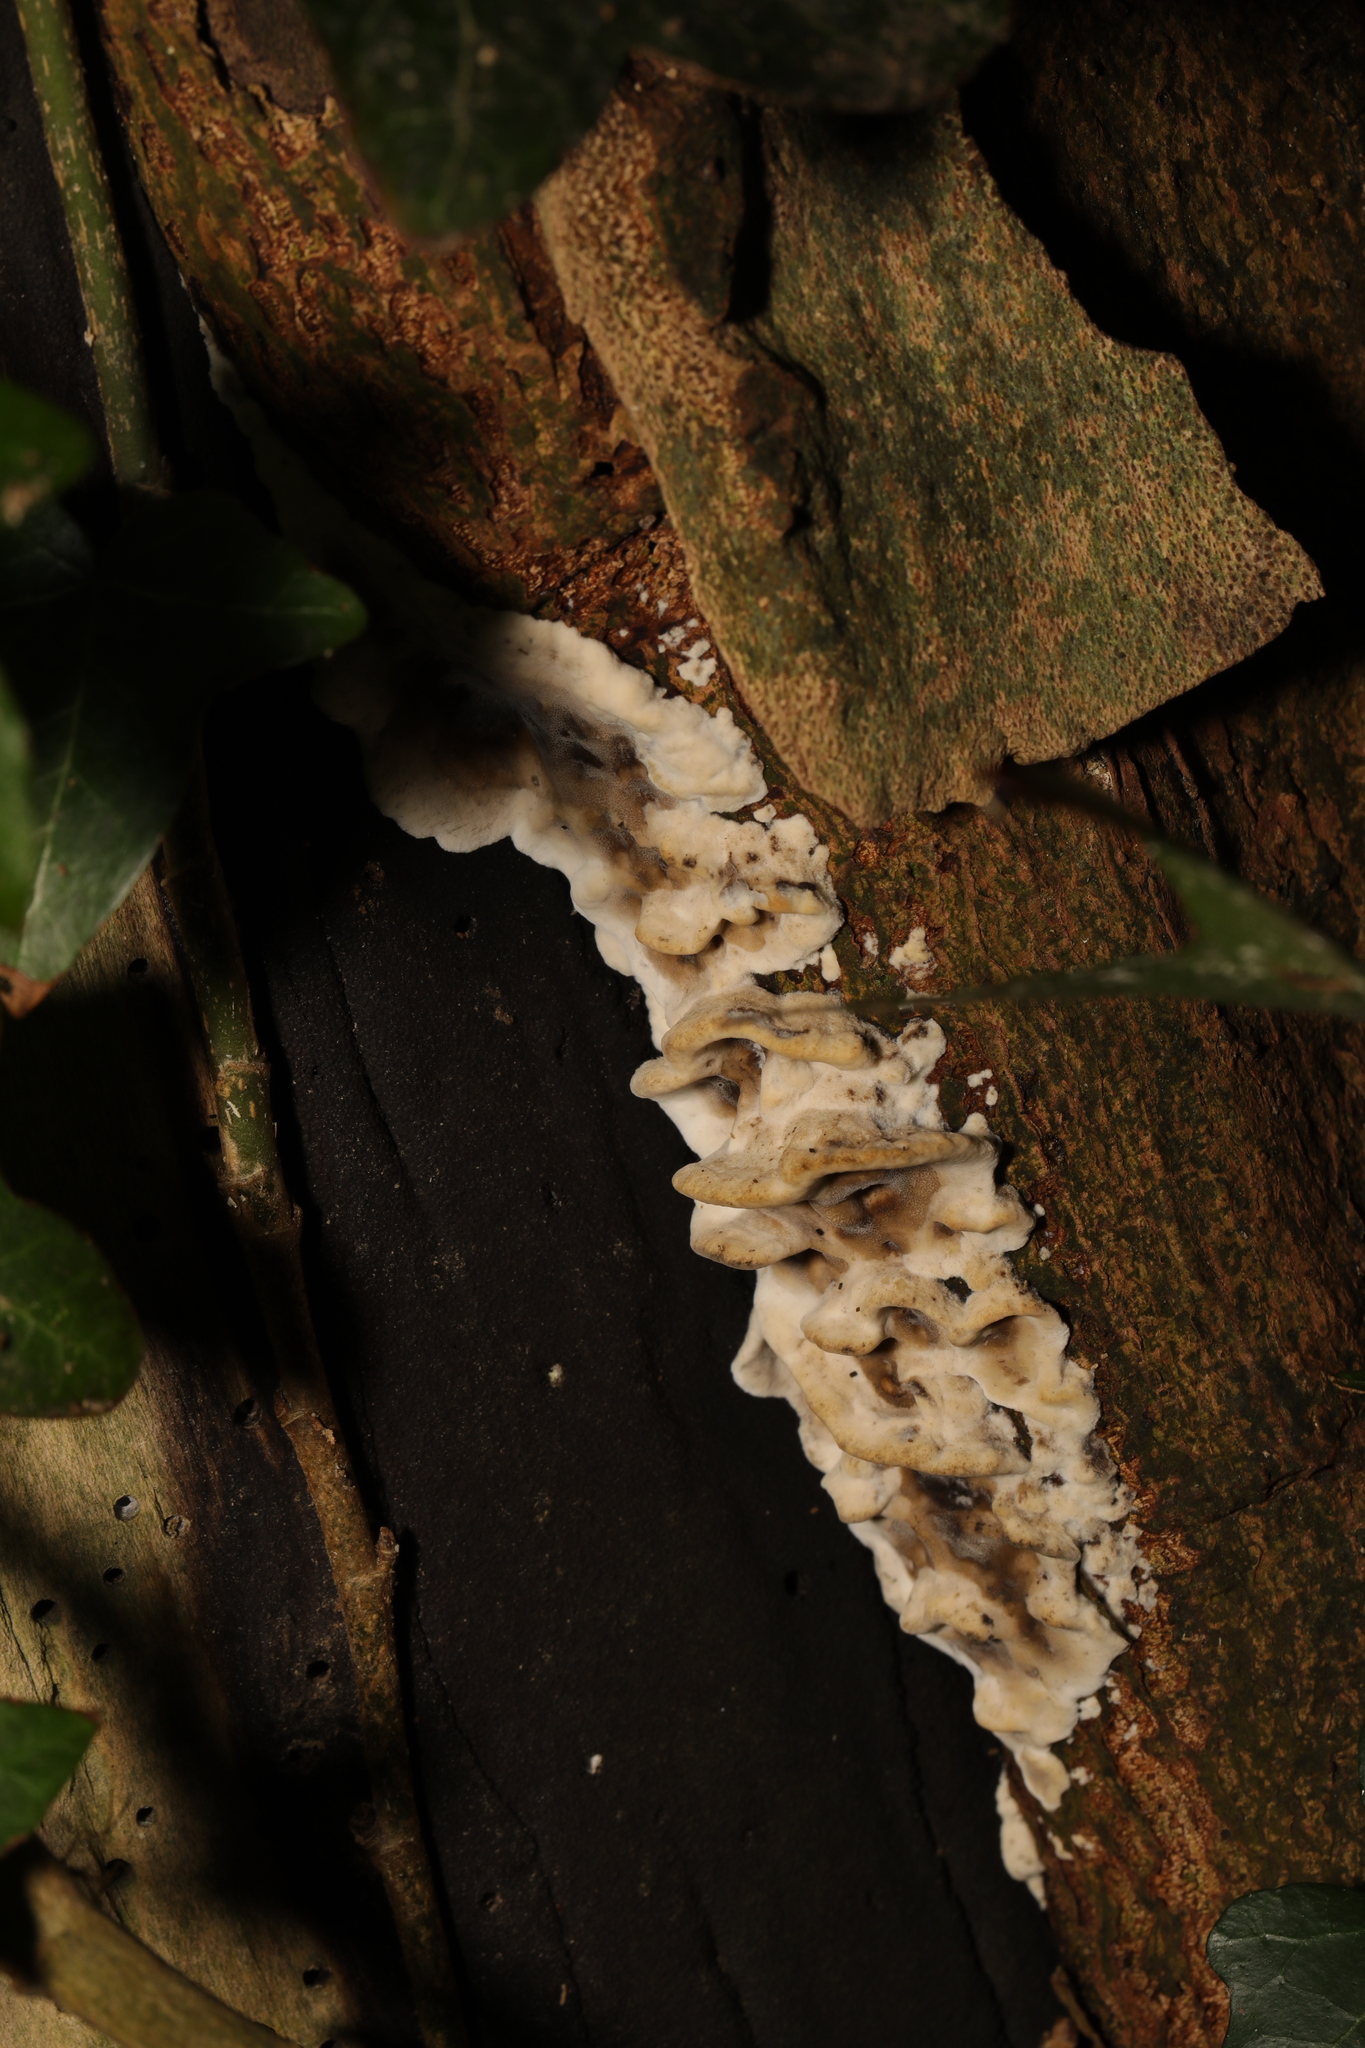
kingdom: Fungi
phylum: Basidiomycota
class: Agaricomycetes
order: Polyporales
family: Phanerochaetaceae
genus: Bjerkandera
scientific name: Bjerkandera adusta
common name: Smoky bracket
